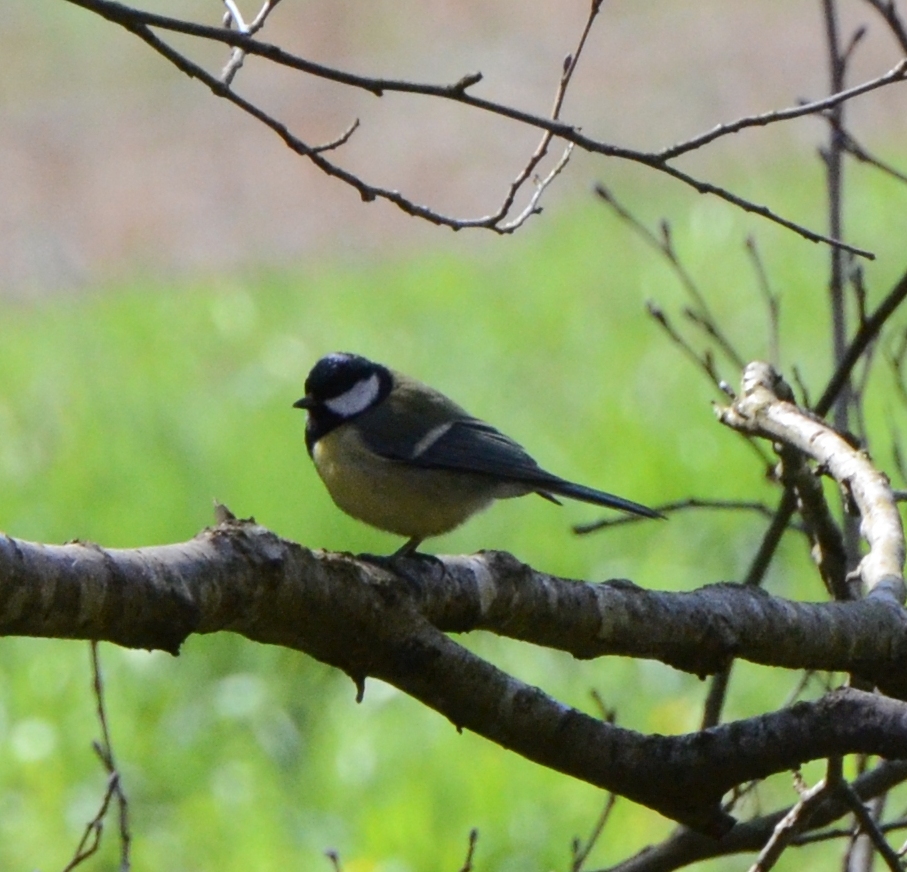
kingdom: Animalia
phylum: Chordata
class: Aves
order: Passeriformes
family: Paridae
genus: Parus
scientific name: Parus major
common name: Great tit
